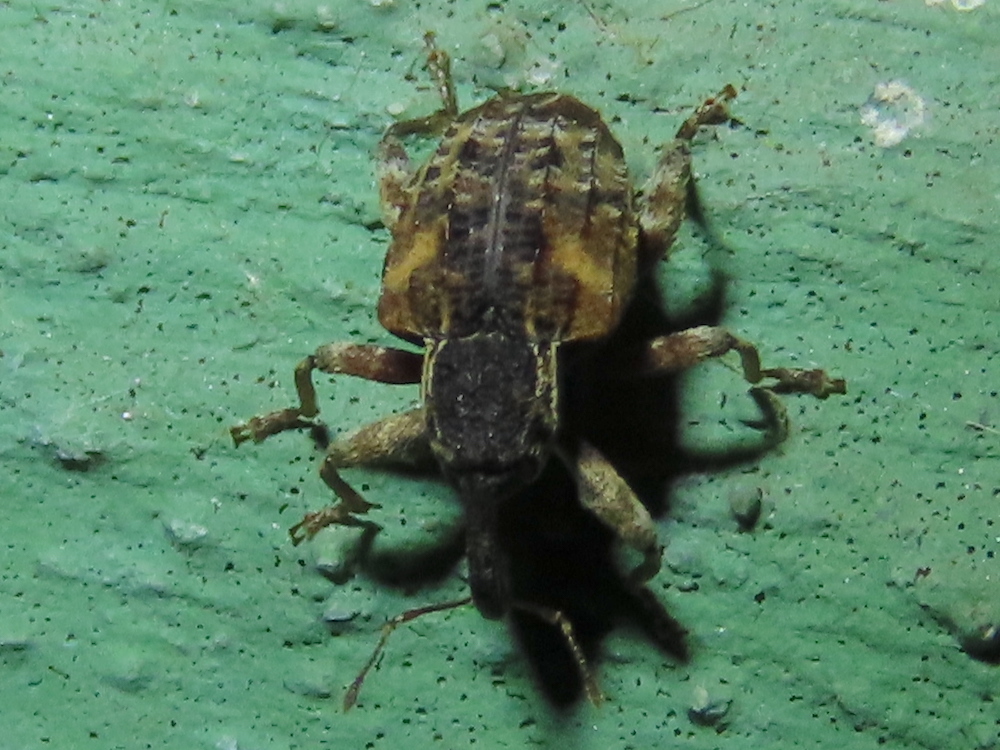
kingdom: Animalia
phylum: Arthropoda
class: Insecta
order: Coleoptera
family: Curculionidae
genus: Conotrachelus
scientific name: Conotrachelus anaglypticus
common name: Cambium curculio
